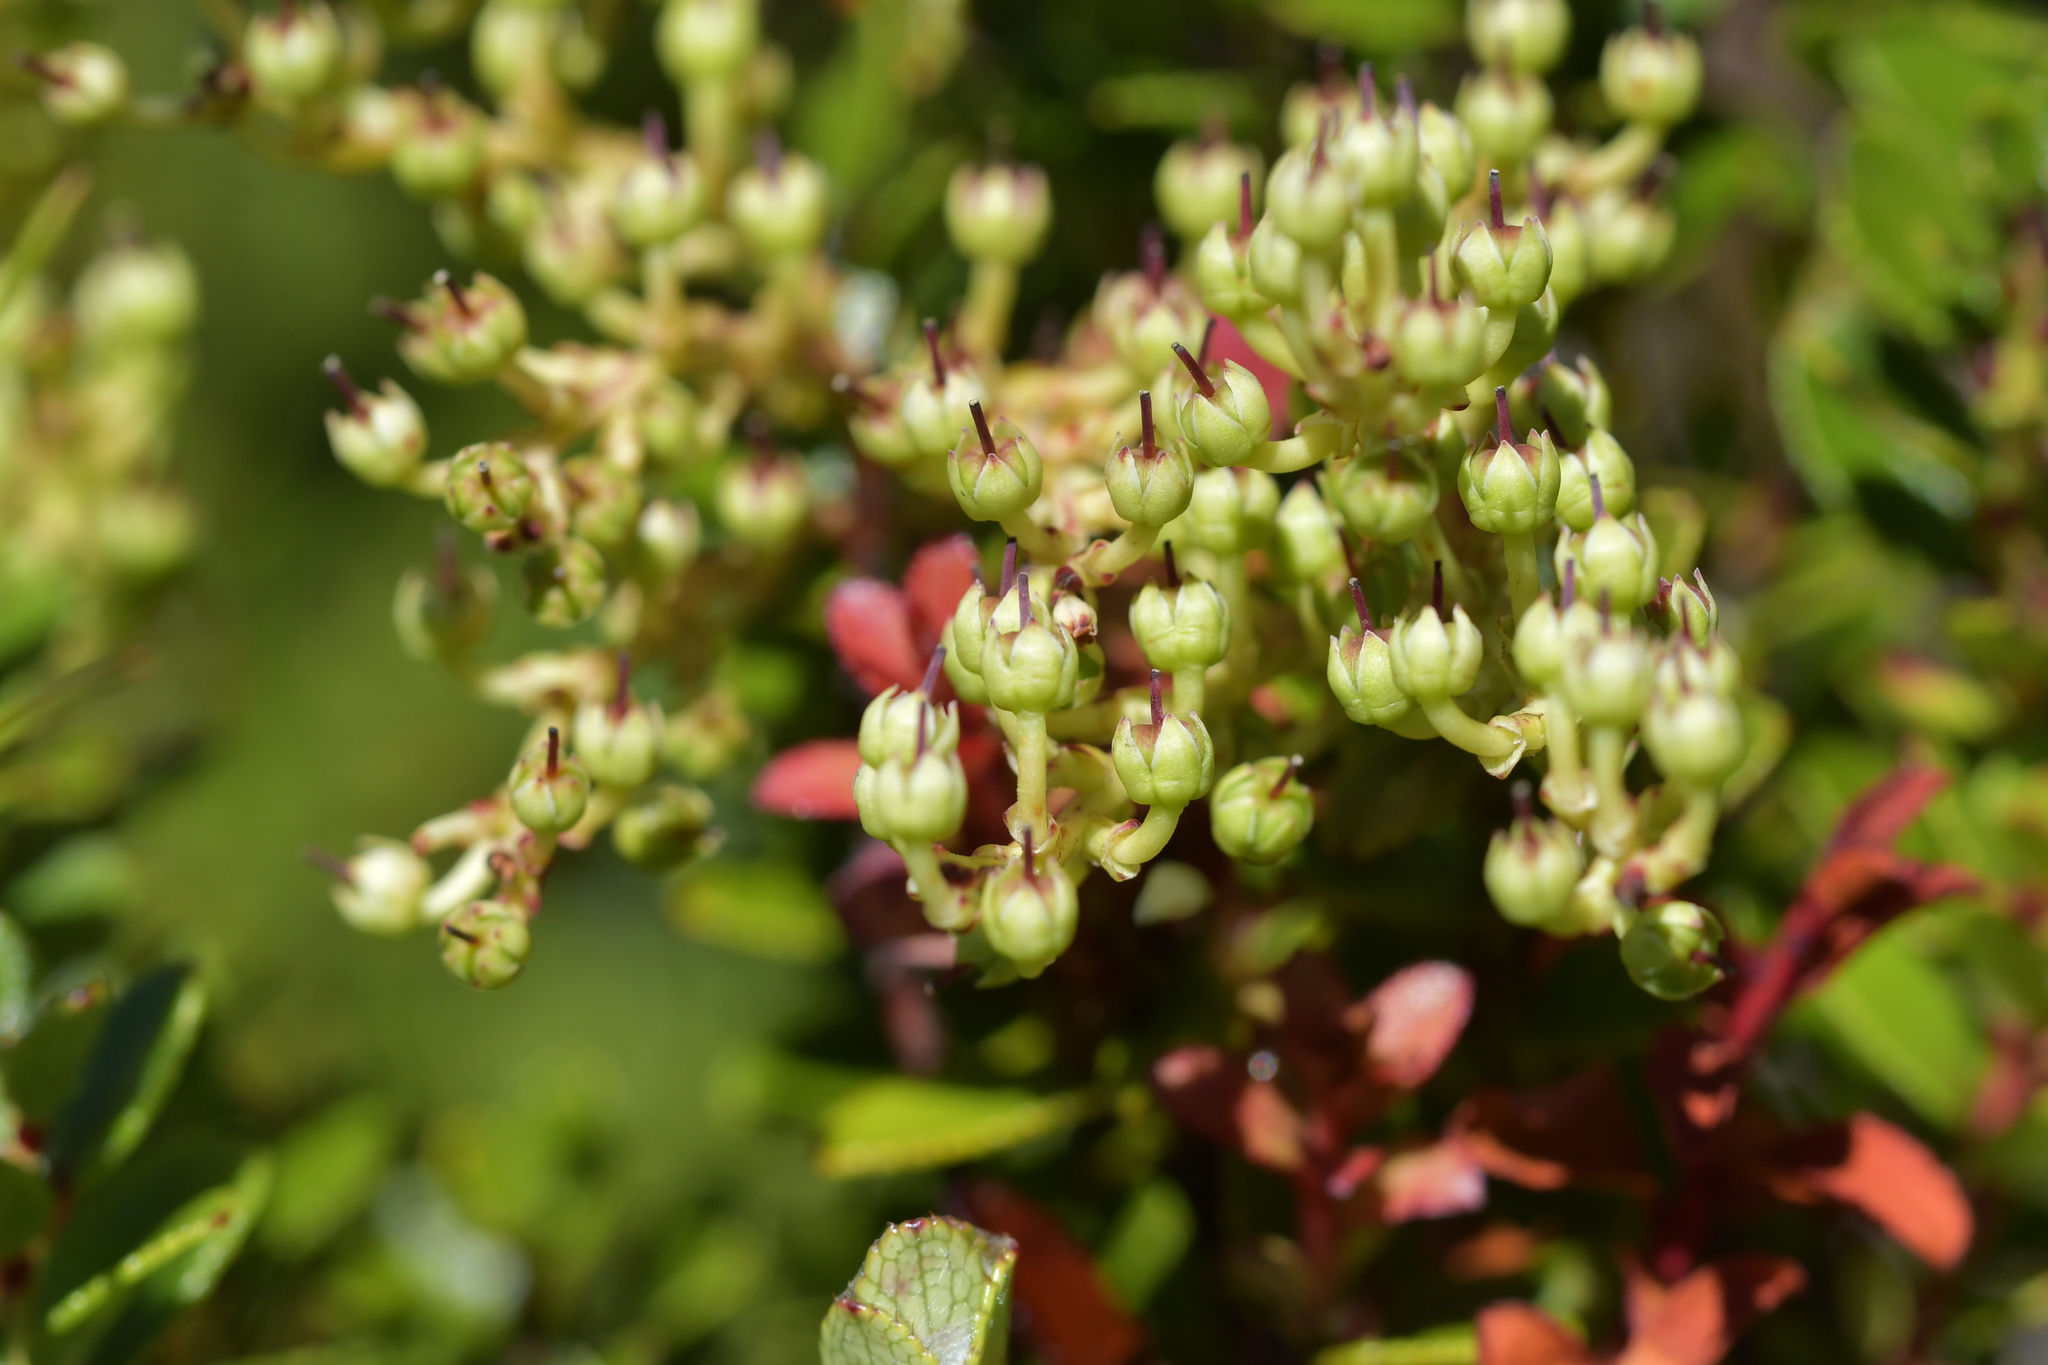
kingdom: Plantae
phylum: Tracheophyta
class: Magnoliopsida
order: Ericales
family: Ericaceae
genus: Gaultheria
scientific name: Gaultheria crassa
